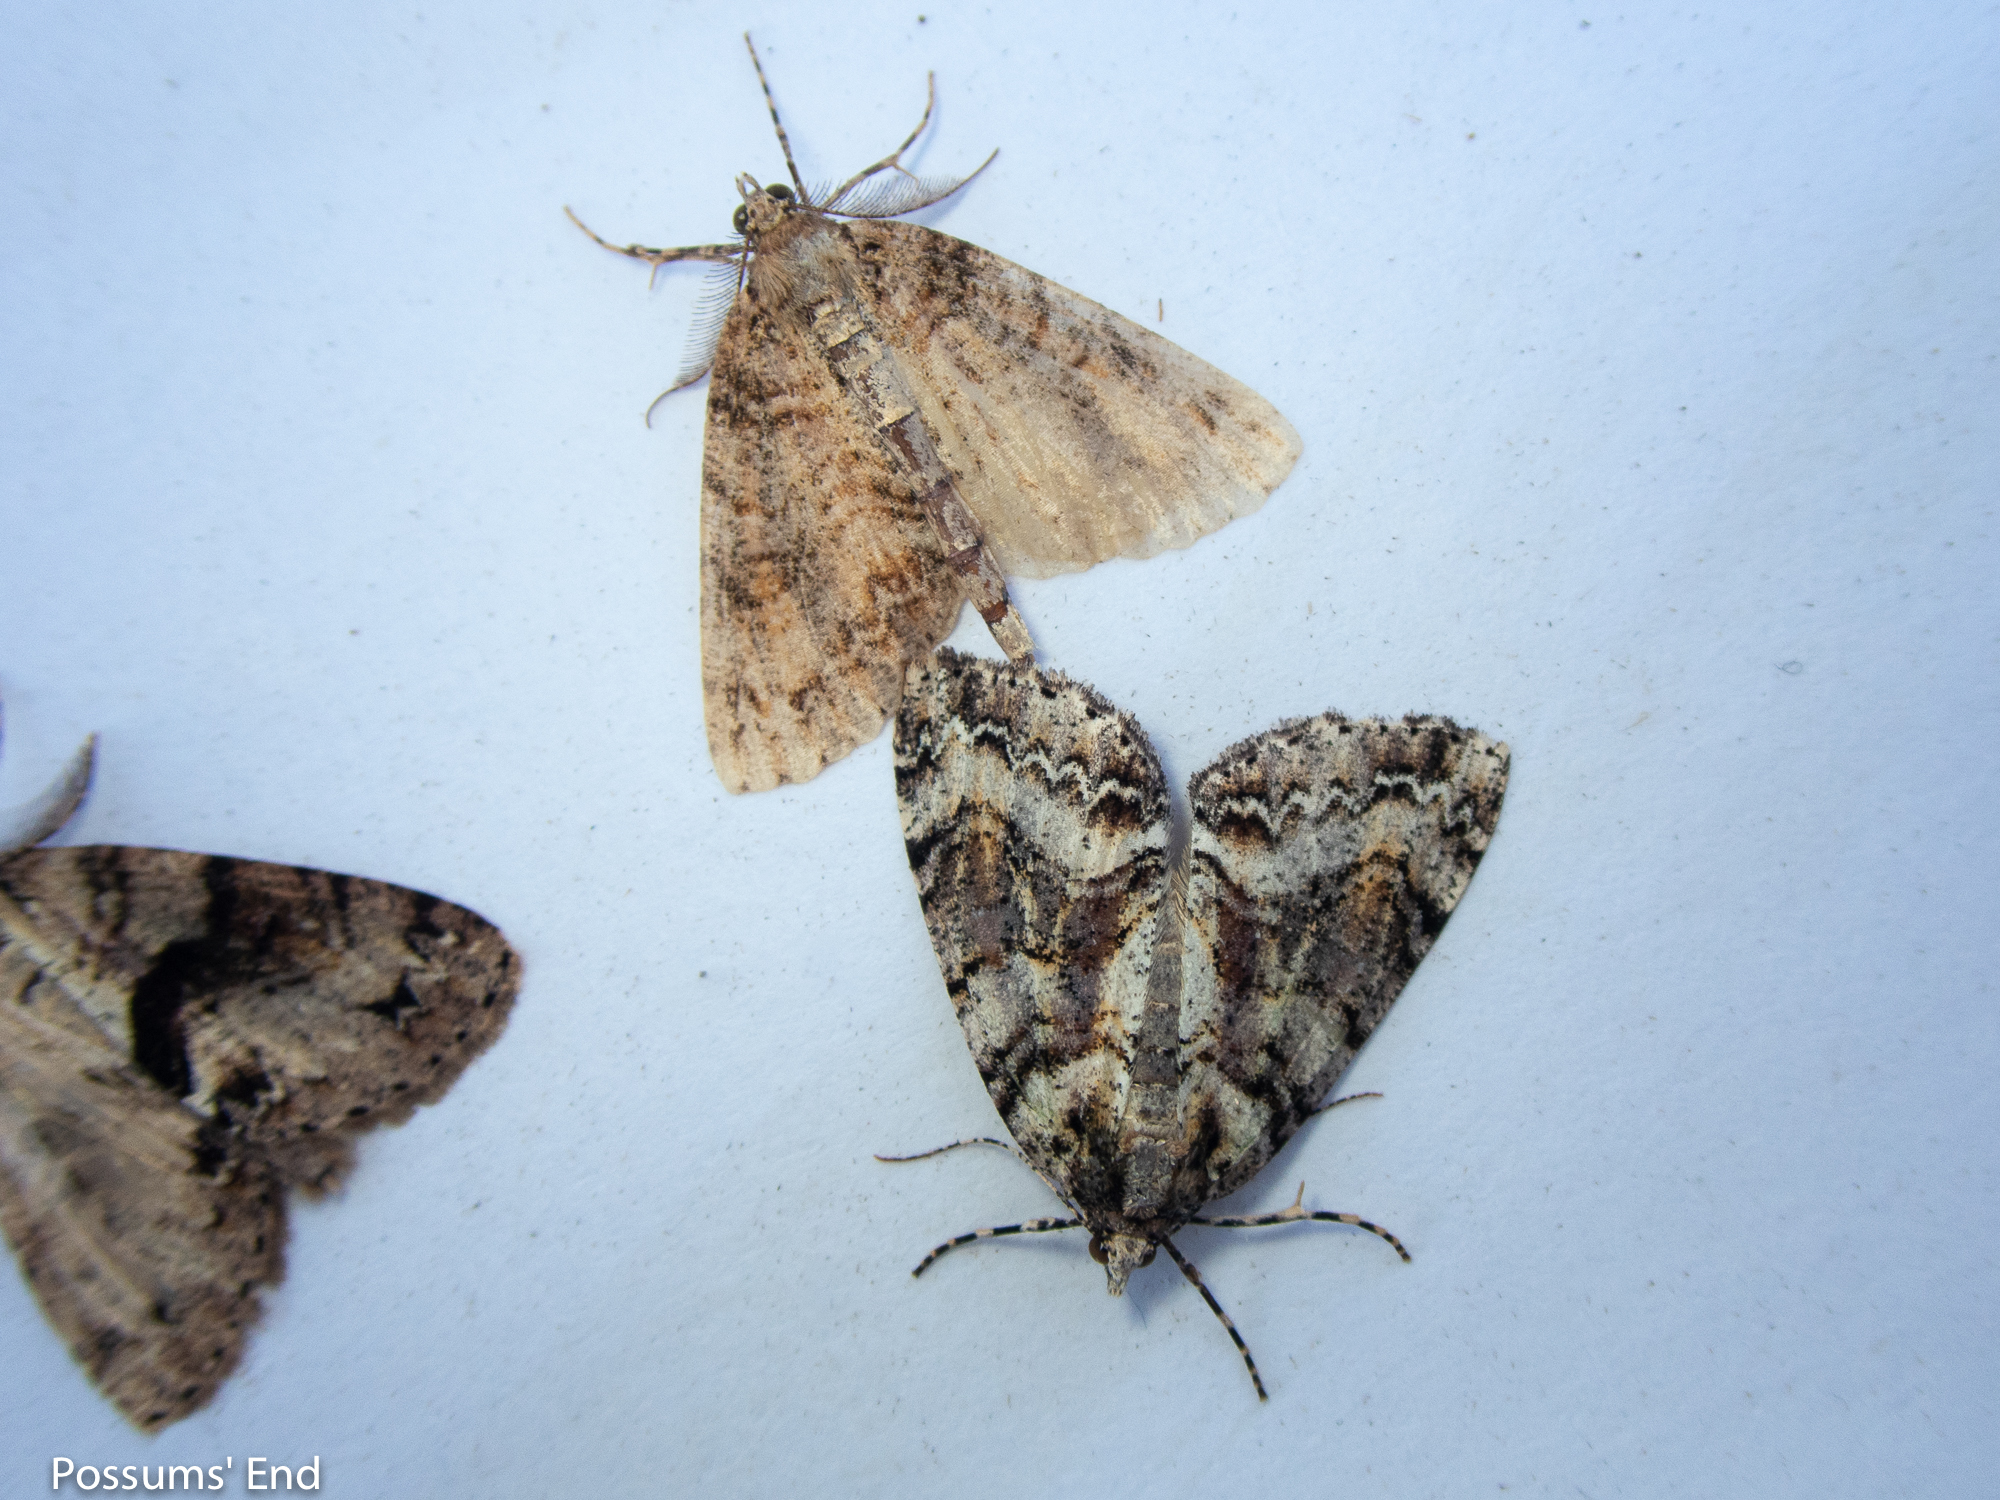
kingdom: Animalia
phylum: Arthropoda
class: Insecta
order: Lepidoptera
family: Geometridae
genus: Pseudocoremia
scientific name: Pseudocoremia suavis
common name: Common forest looper
